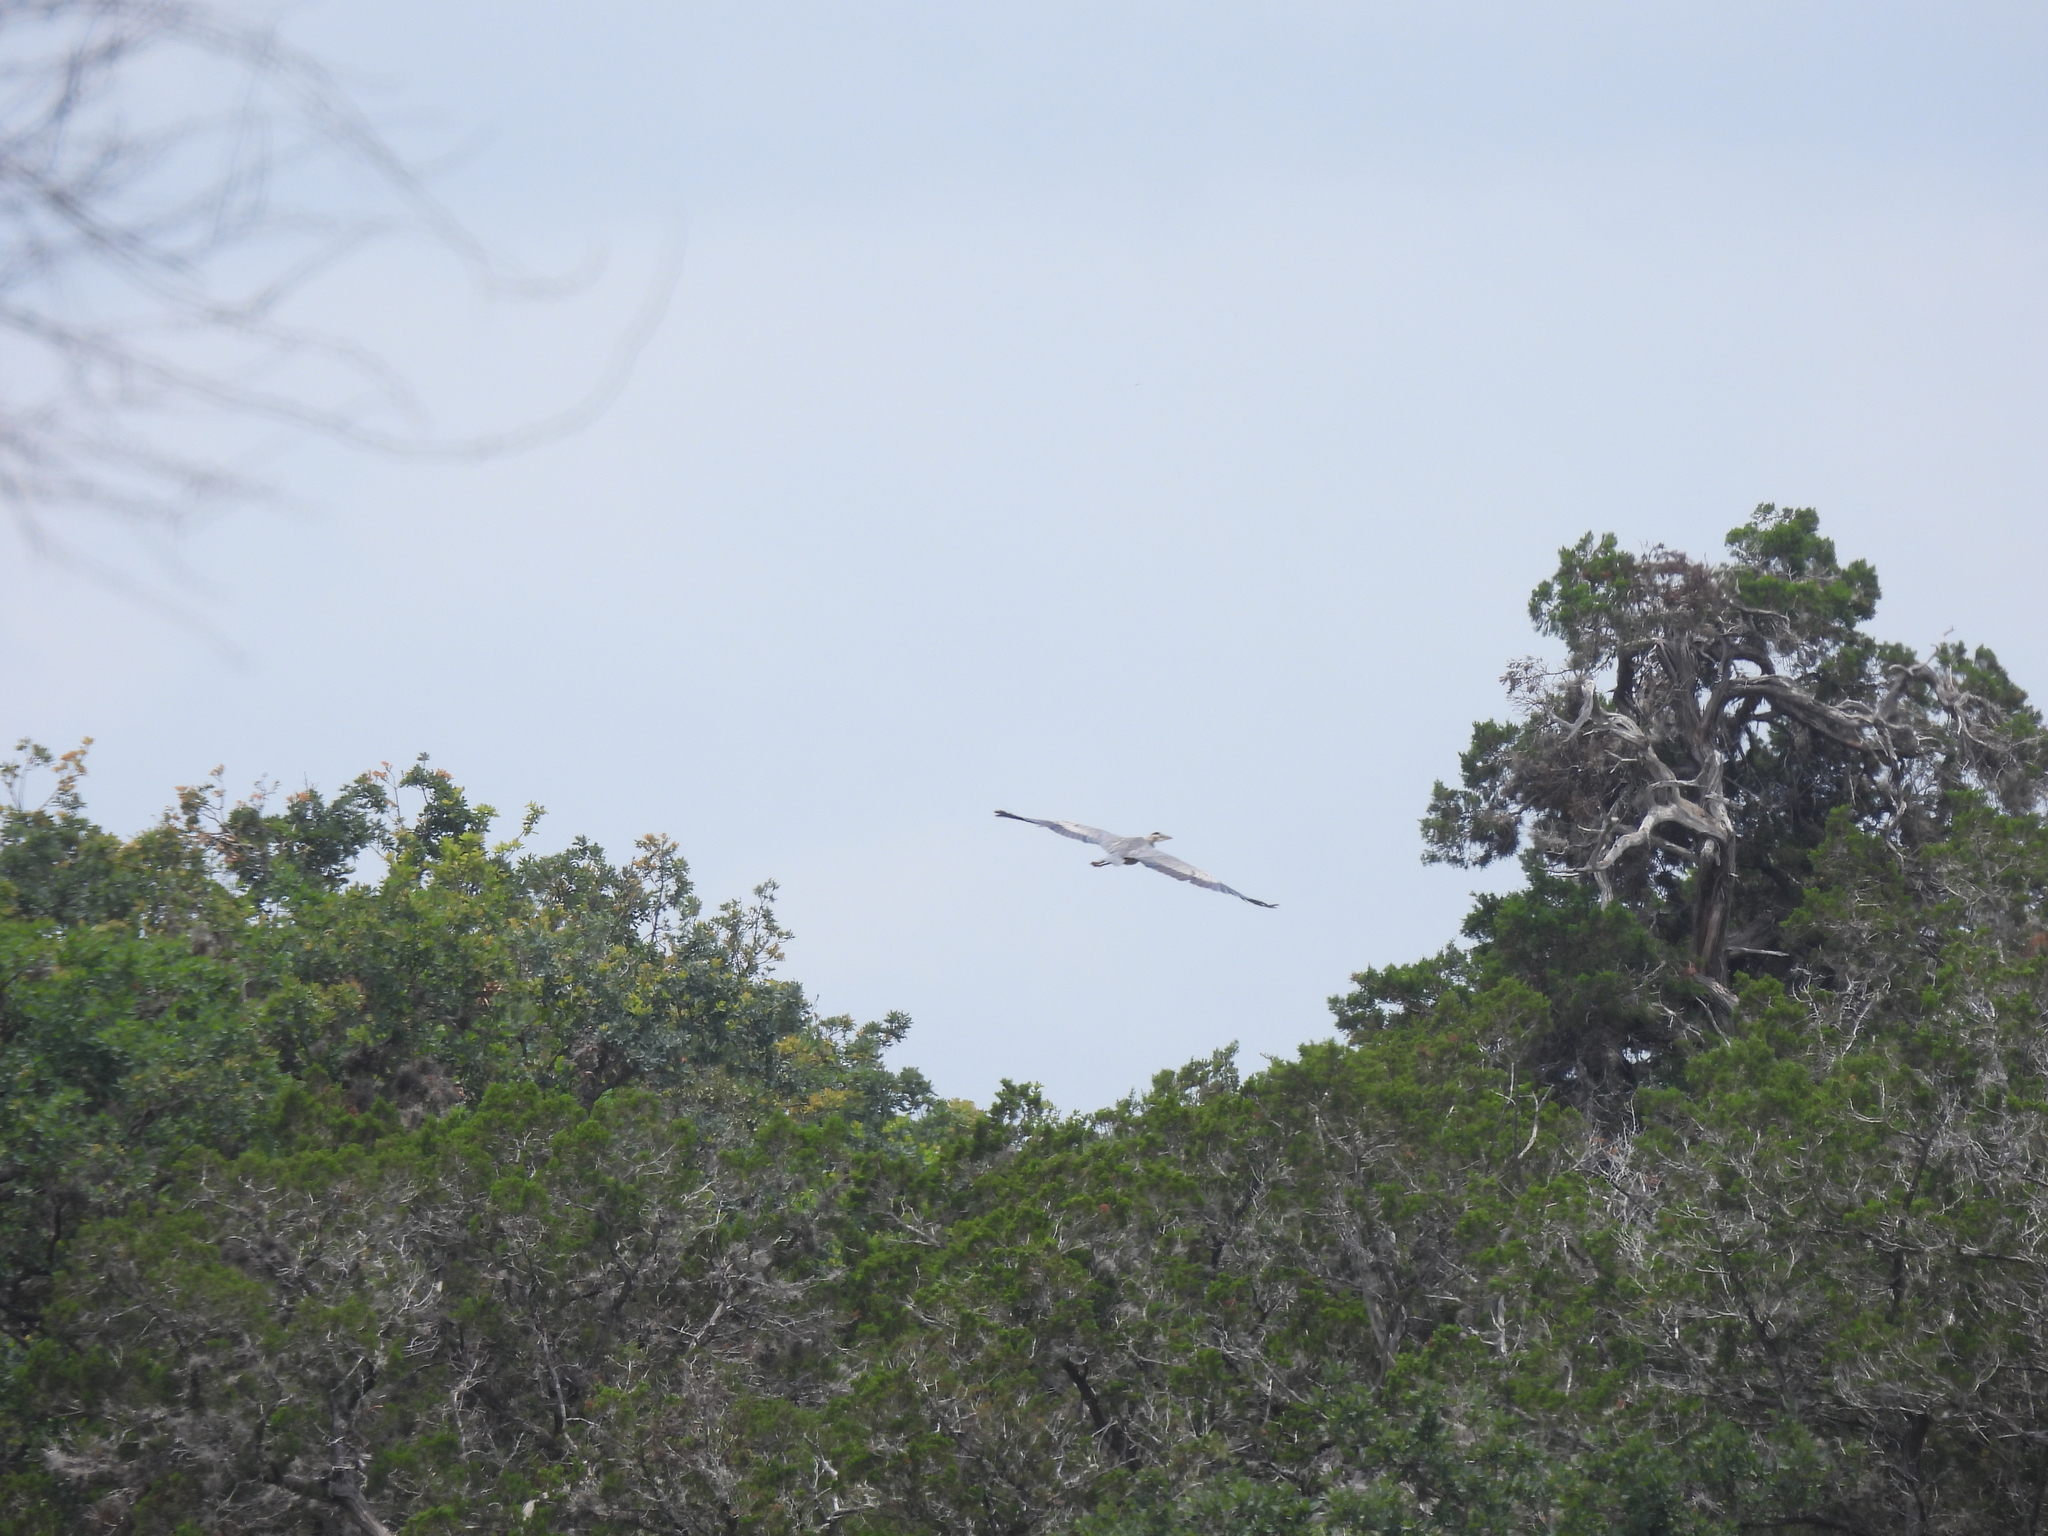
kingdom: Animalia
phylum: Chordata
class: Aves
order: Pelecaniformes
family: Ardeidae
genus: Ardea
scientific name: Ardea herodias
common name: Great blue heron
